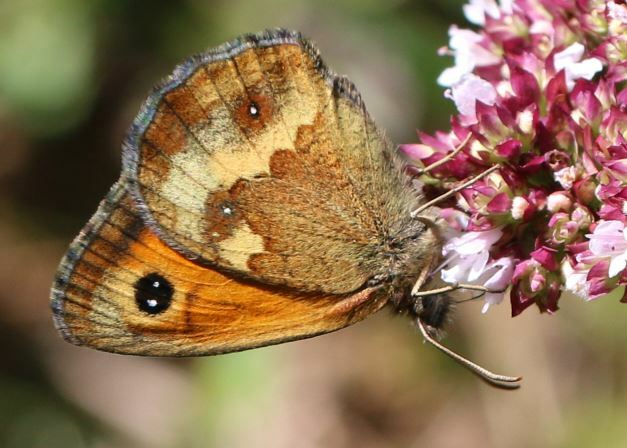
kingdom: Animalia
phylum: Arthropoda
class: Insecta
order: Lepidoptera
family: Nymphalidae
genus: Pyronia
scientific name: Pyronia tithonus
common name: Gatekeeper
